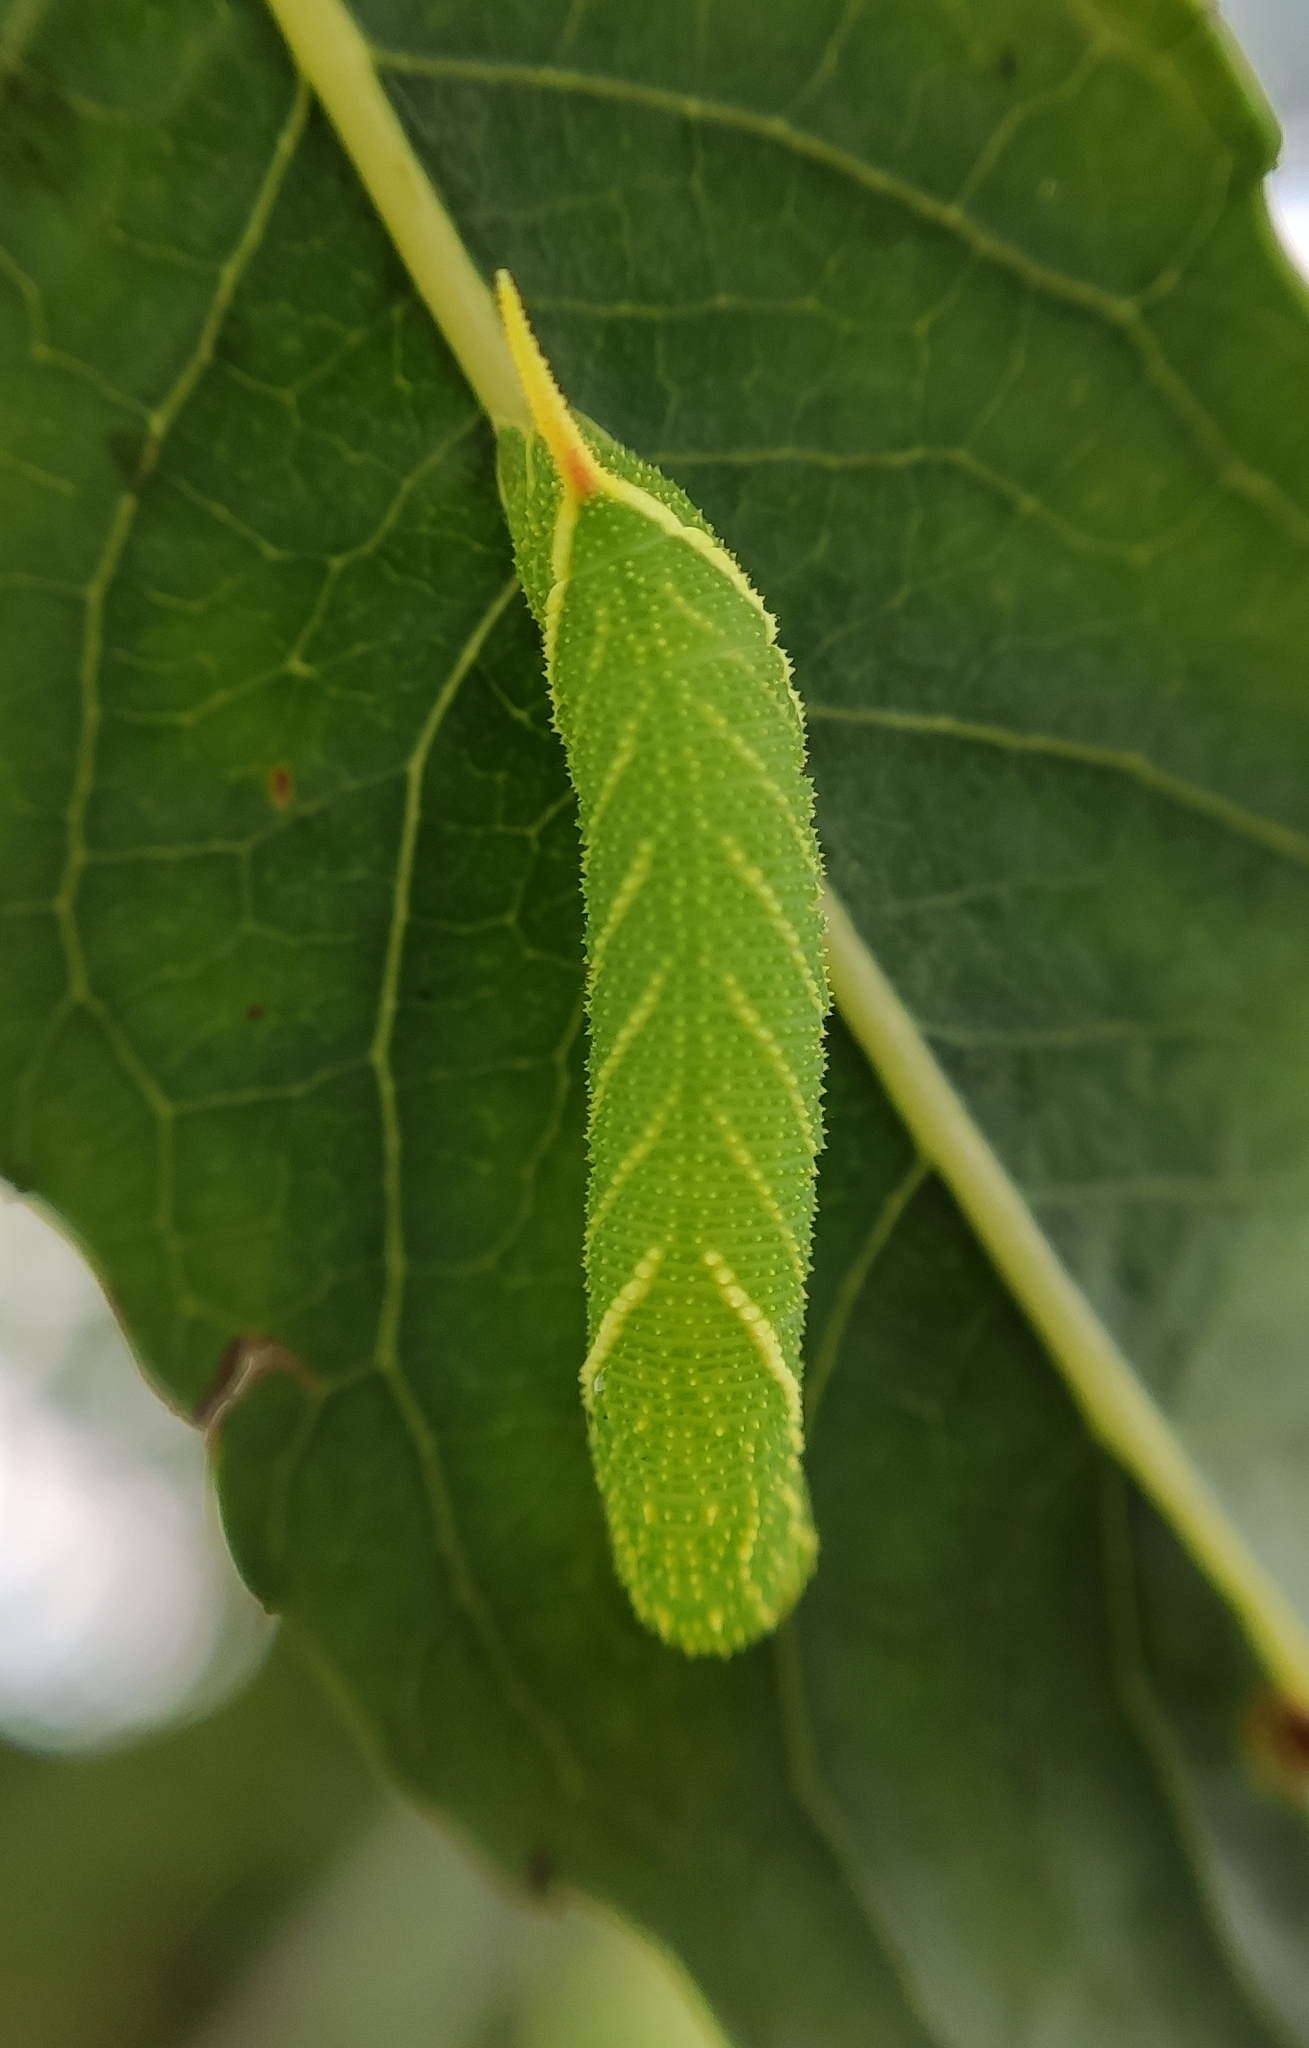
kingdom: Animalia
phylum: Arthropoda
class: Insecta
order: Lepidoptera
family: Sphingidae
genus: Laothoe
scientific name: Laothoe populi
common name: Poplar hawk-moth
